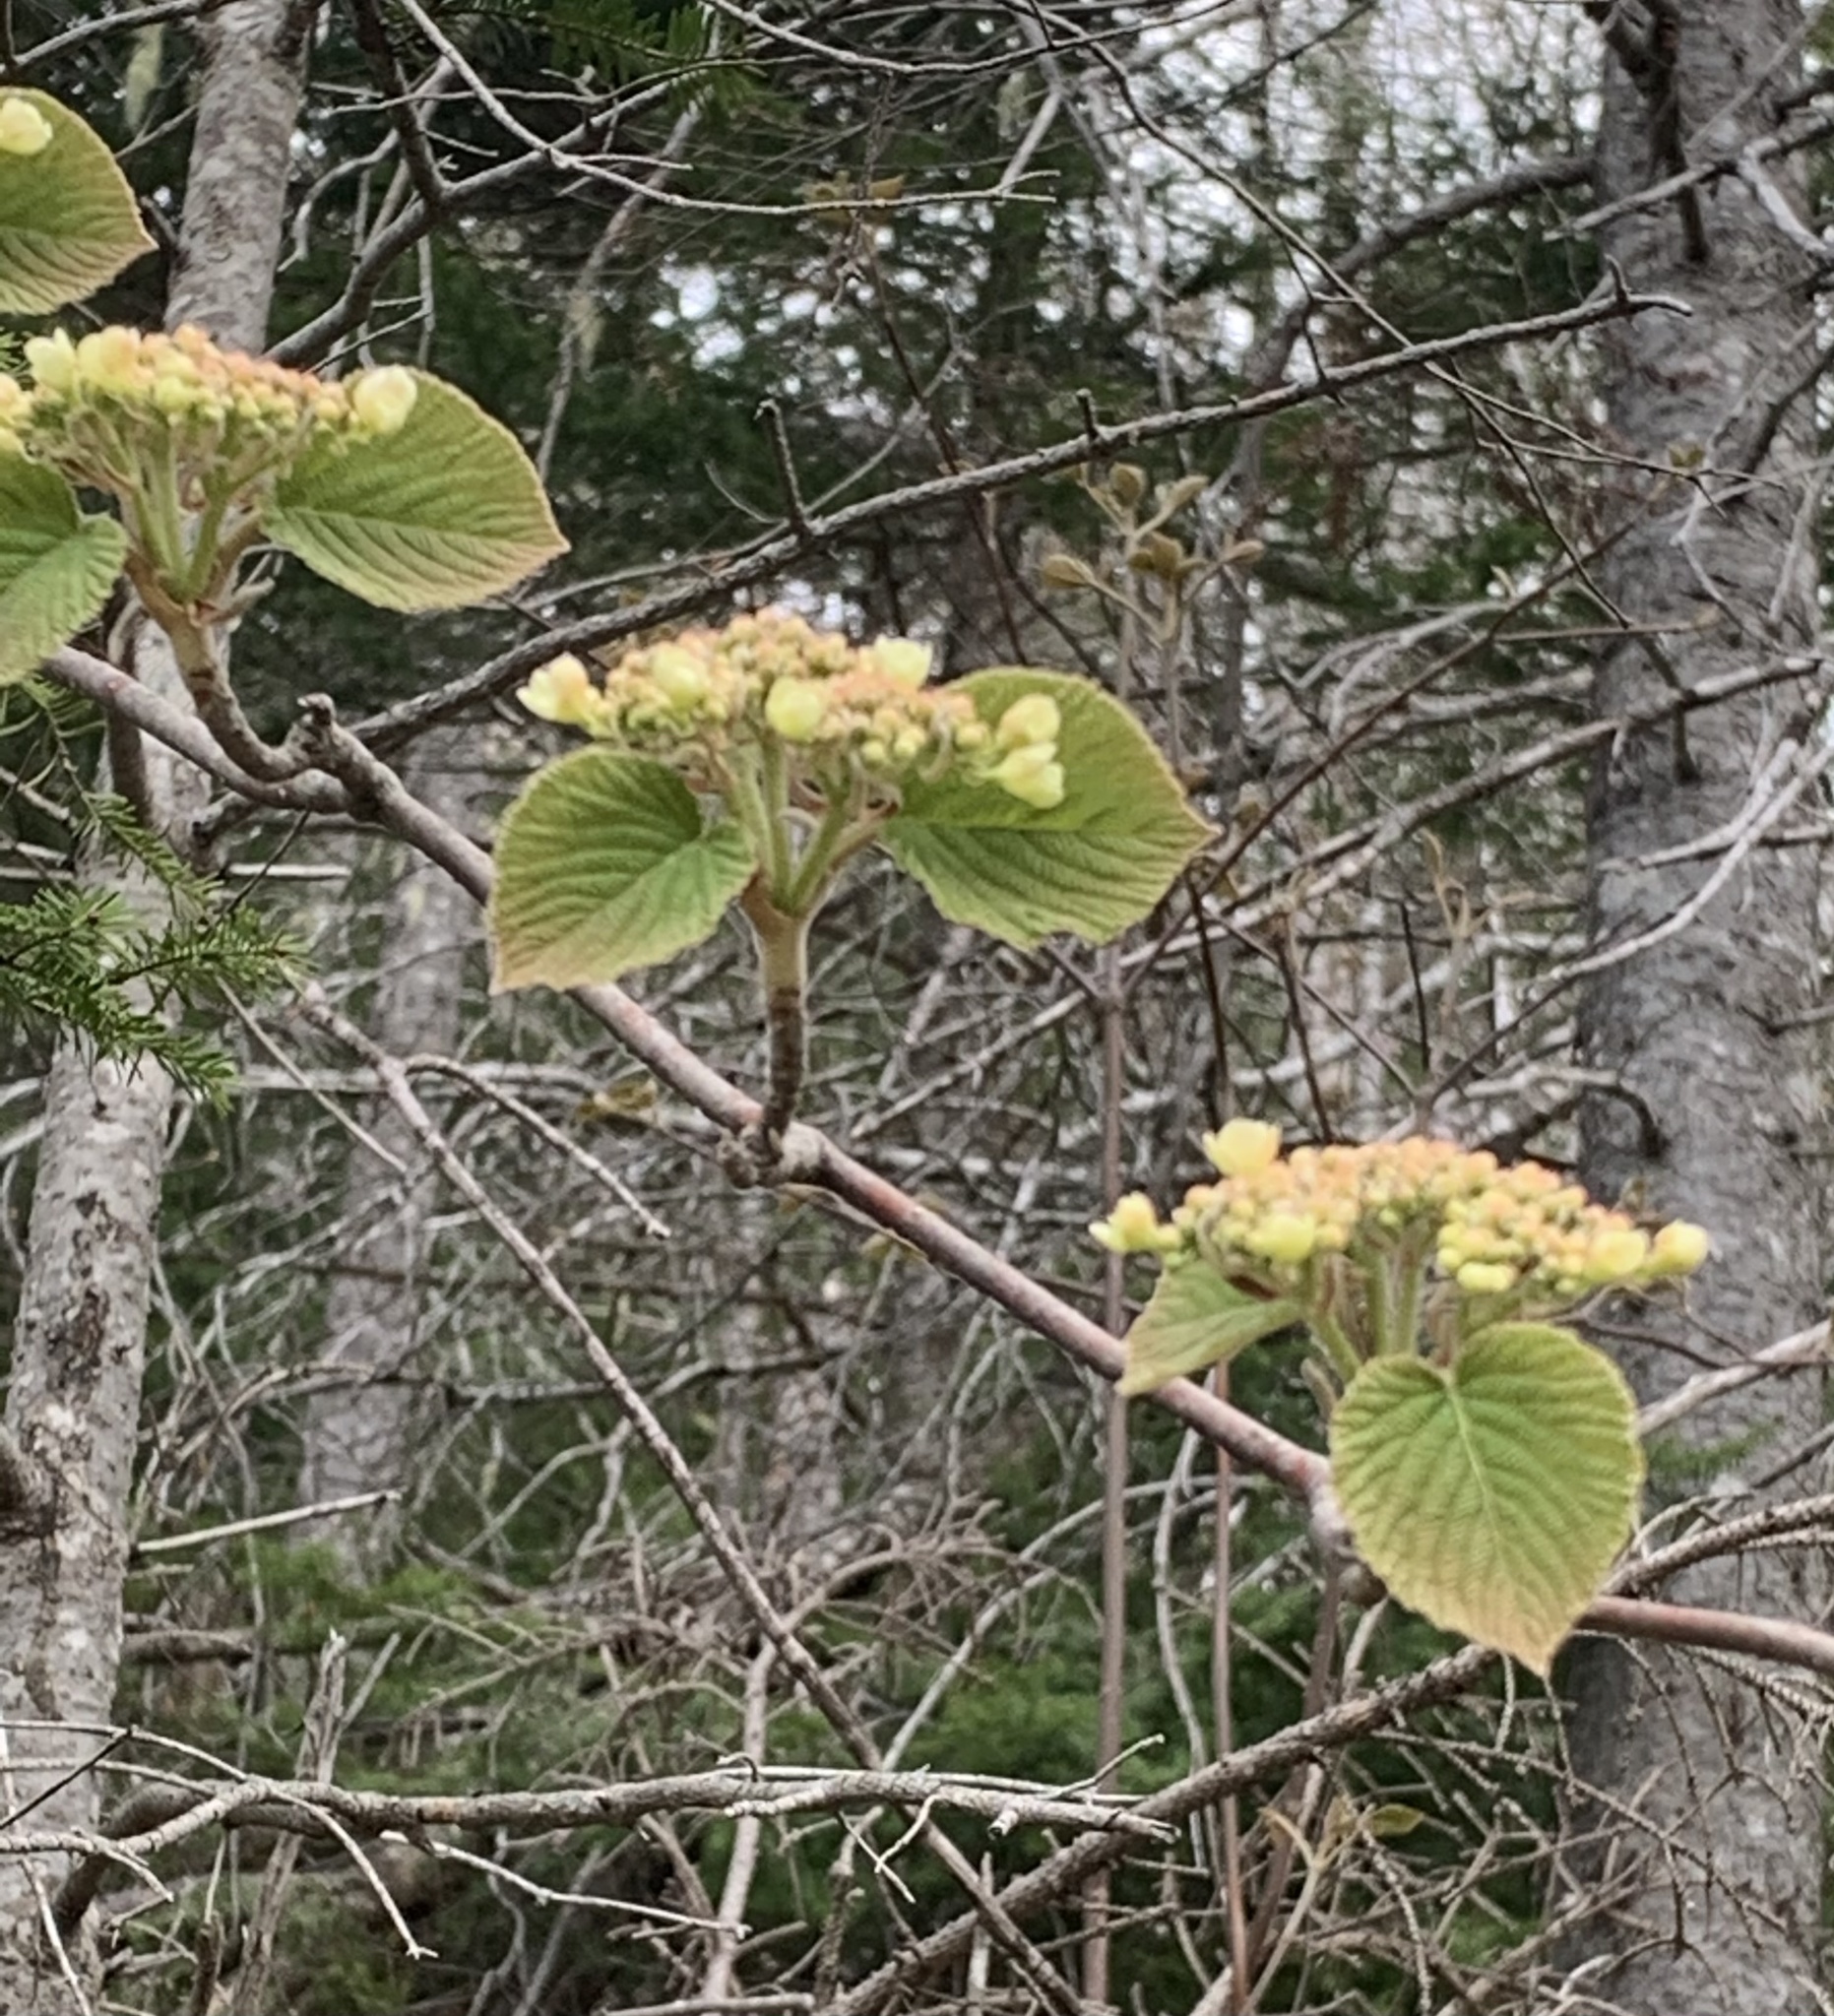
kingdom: Plantae
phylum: Tracheophyta
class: Magnoliopsida
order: Dipsacales
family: Viburnaceae
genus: Viburnum
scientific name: Viburnum lantanoides
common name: Hobblebush
